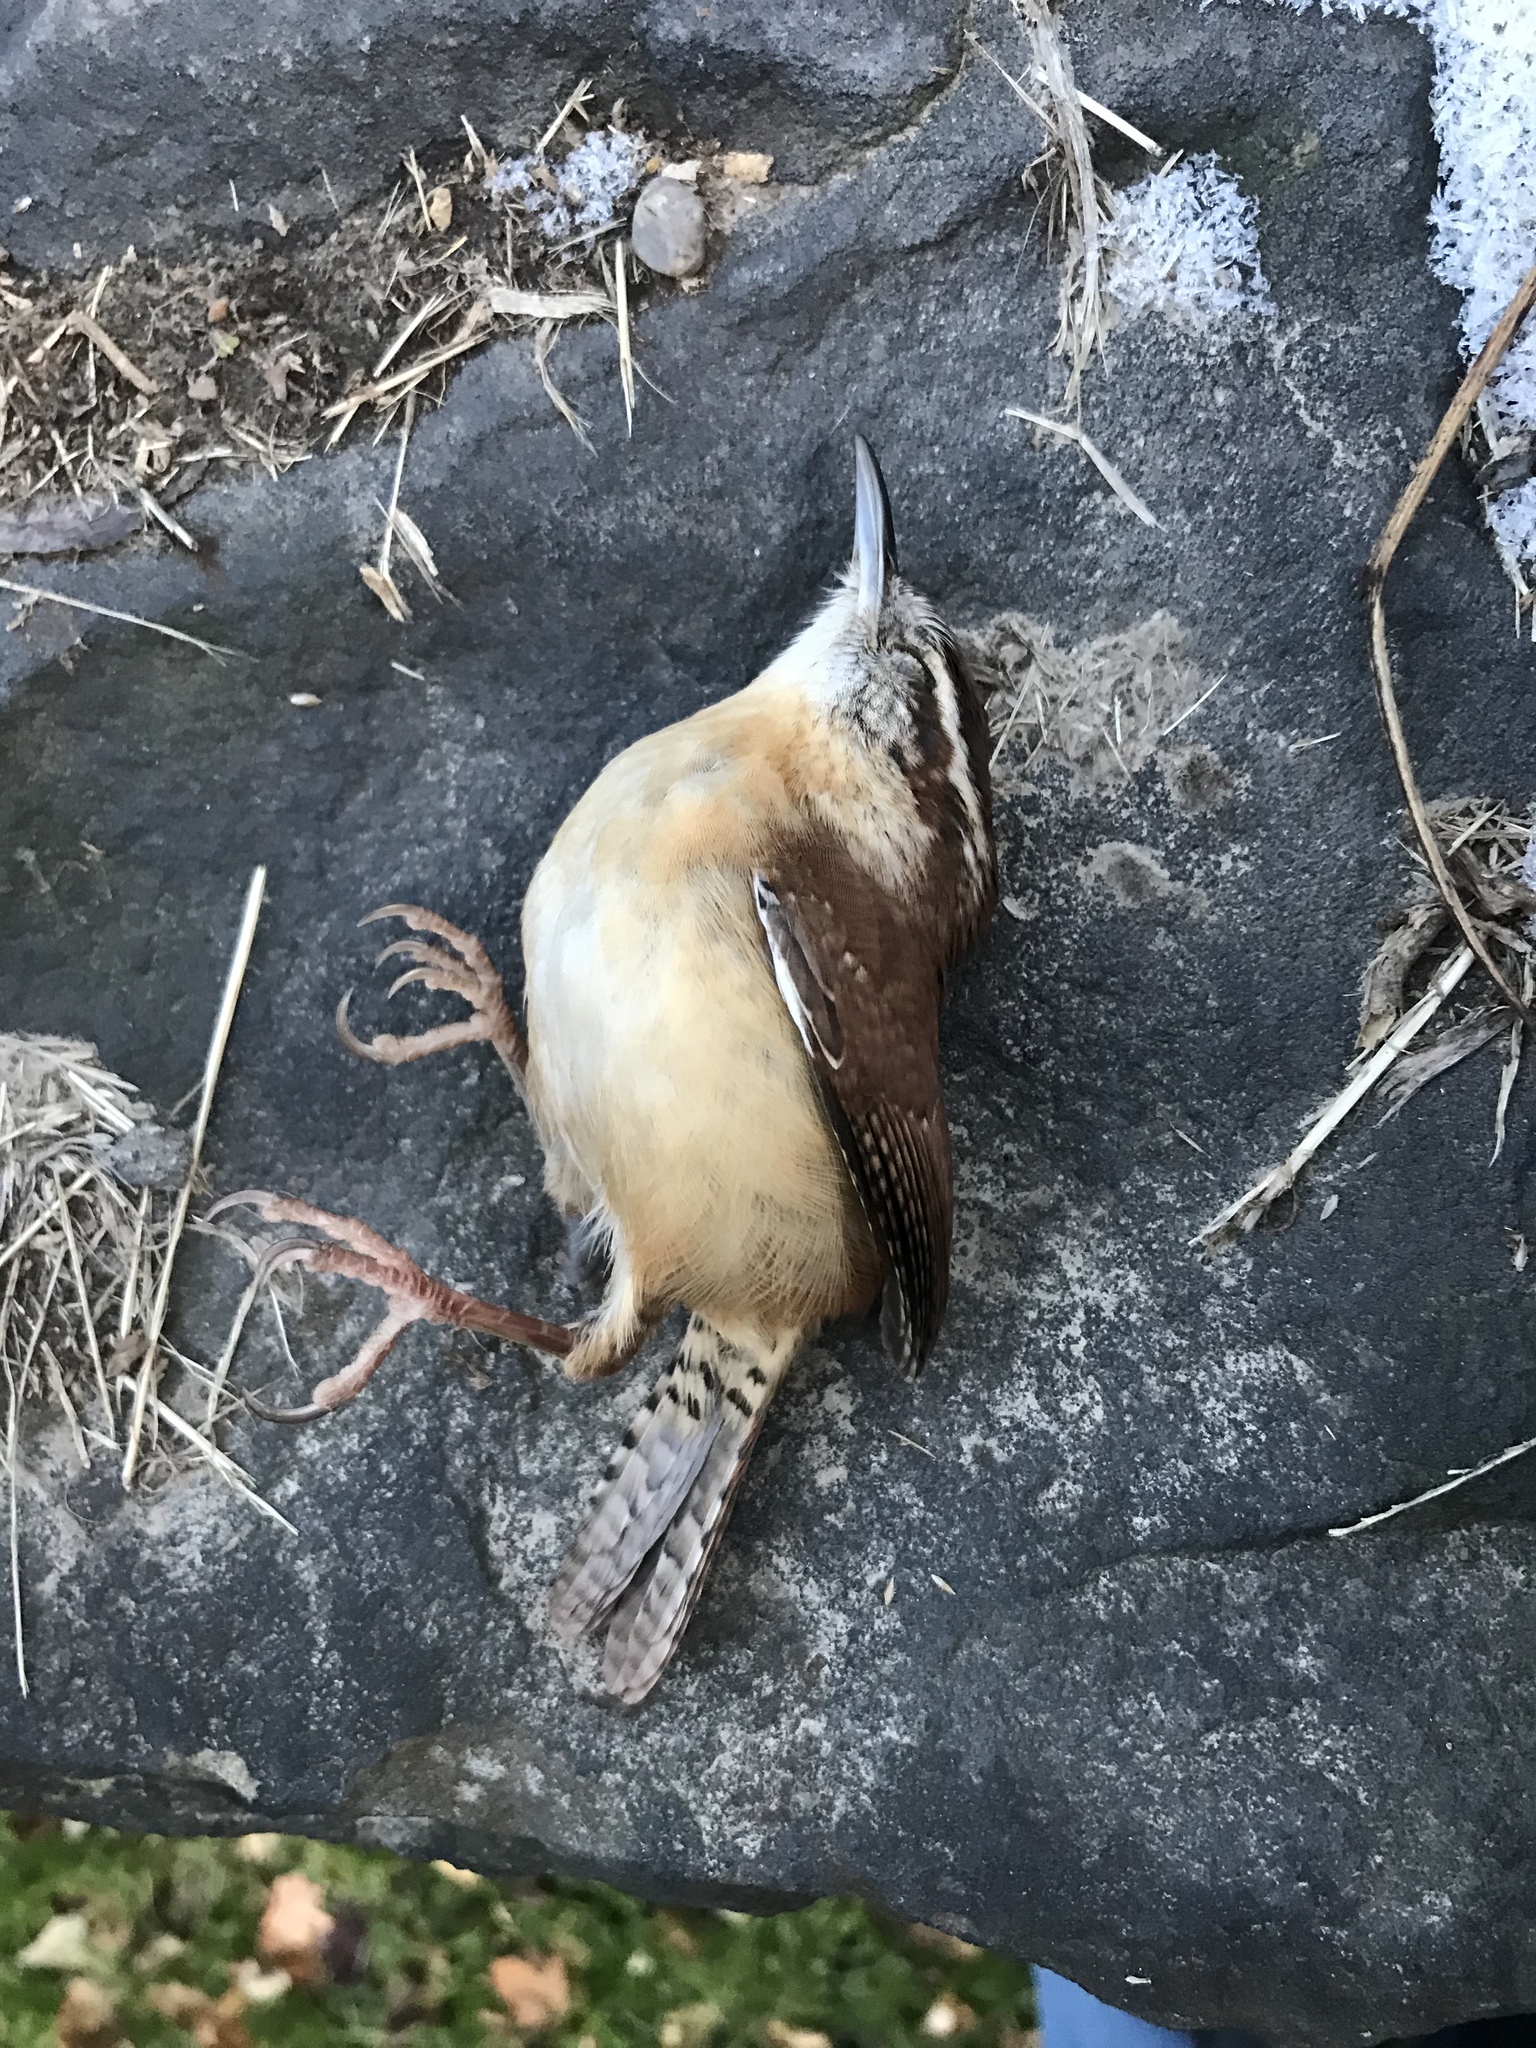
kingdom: Animalia
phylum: Chordata
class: Aves
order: Passeriformes
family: Troglodytidae
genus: Thryothorus
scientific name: Thryothorus ludovicianus
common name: Carolina wren
